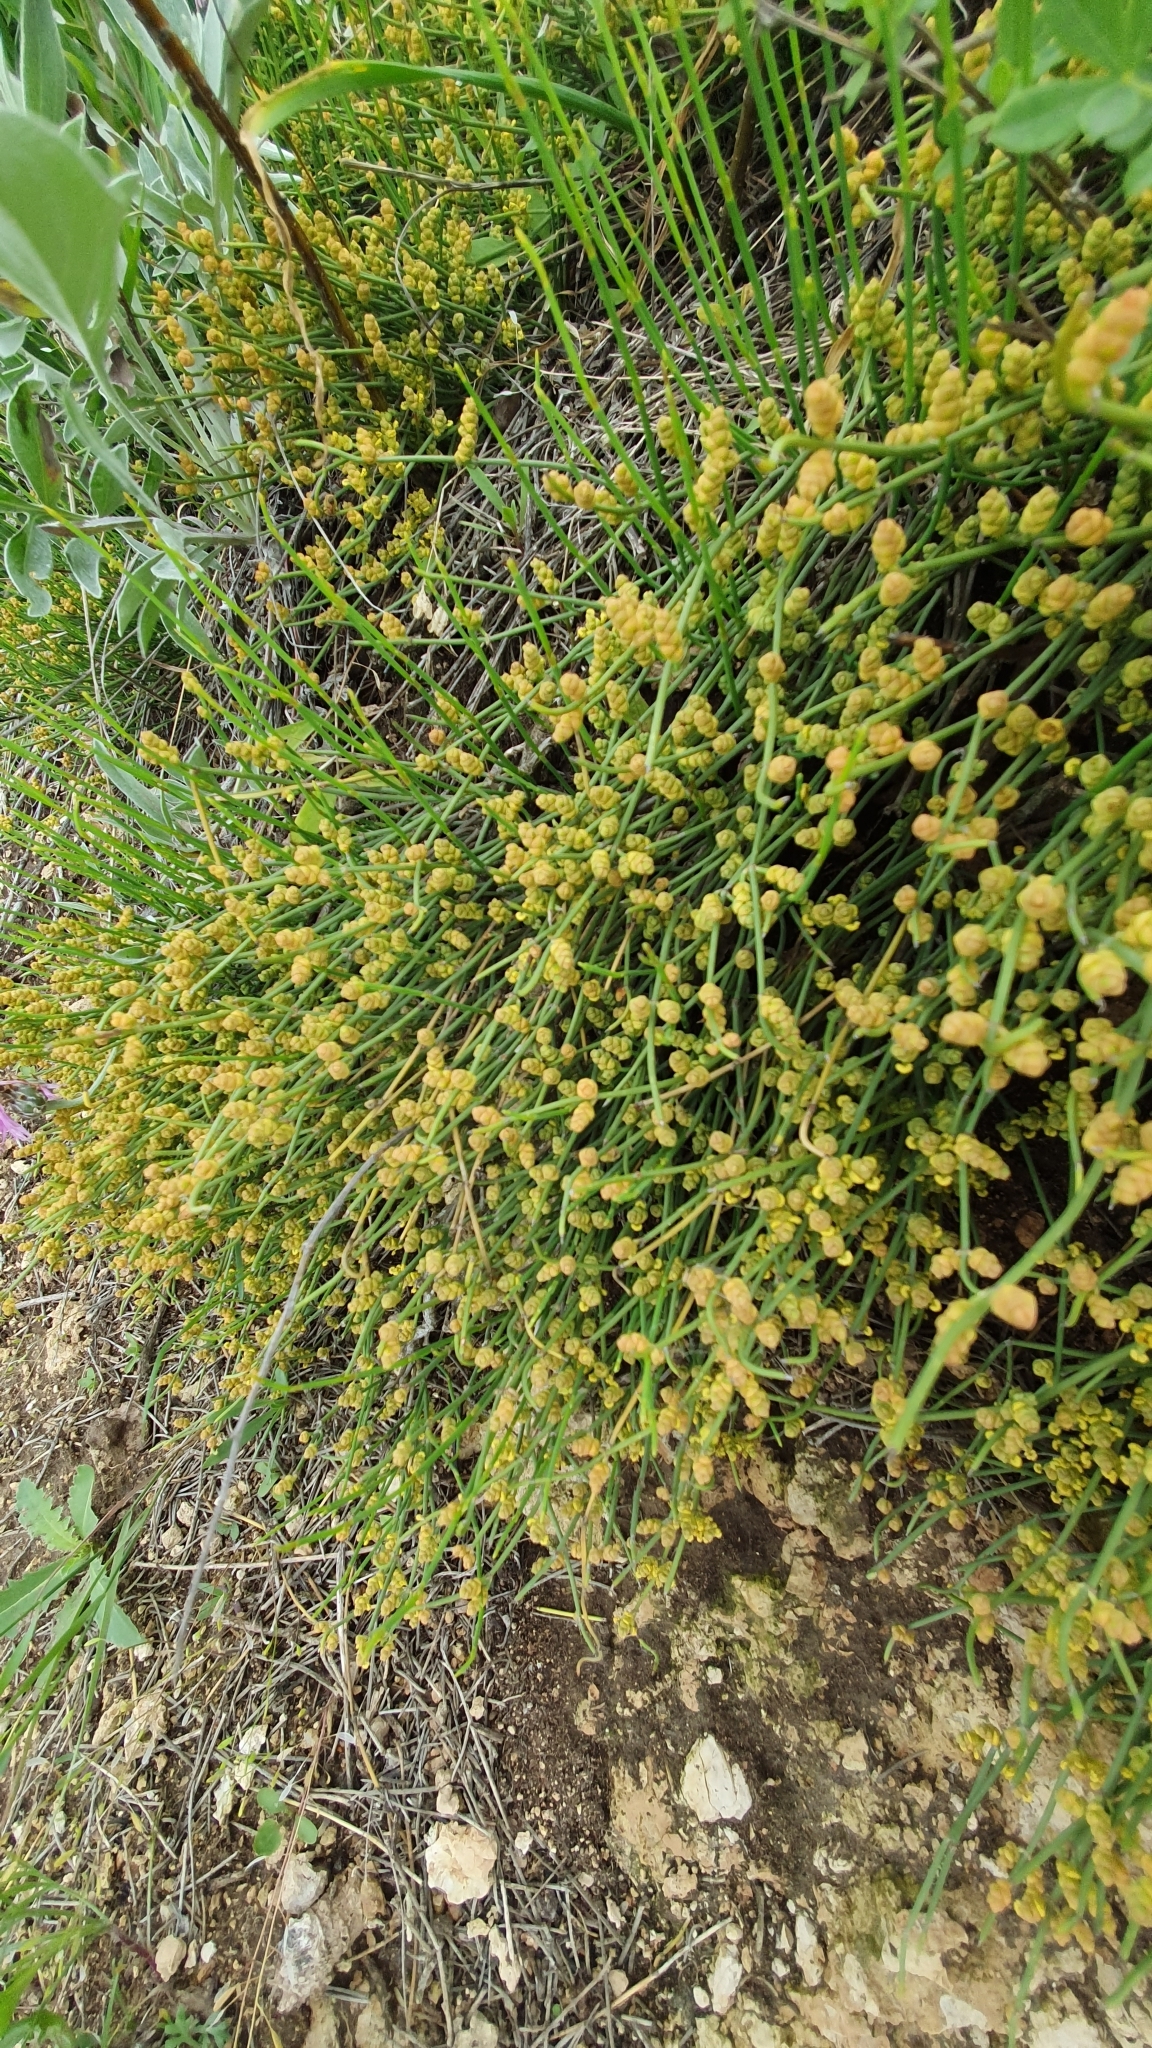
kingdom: Plantae
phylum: Tracheophyta
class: Gnetopsida
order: Ephedrales
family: Ephedraceae
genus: Ephedra
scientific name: Ephedra distachya
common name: Sea grape
